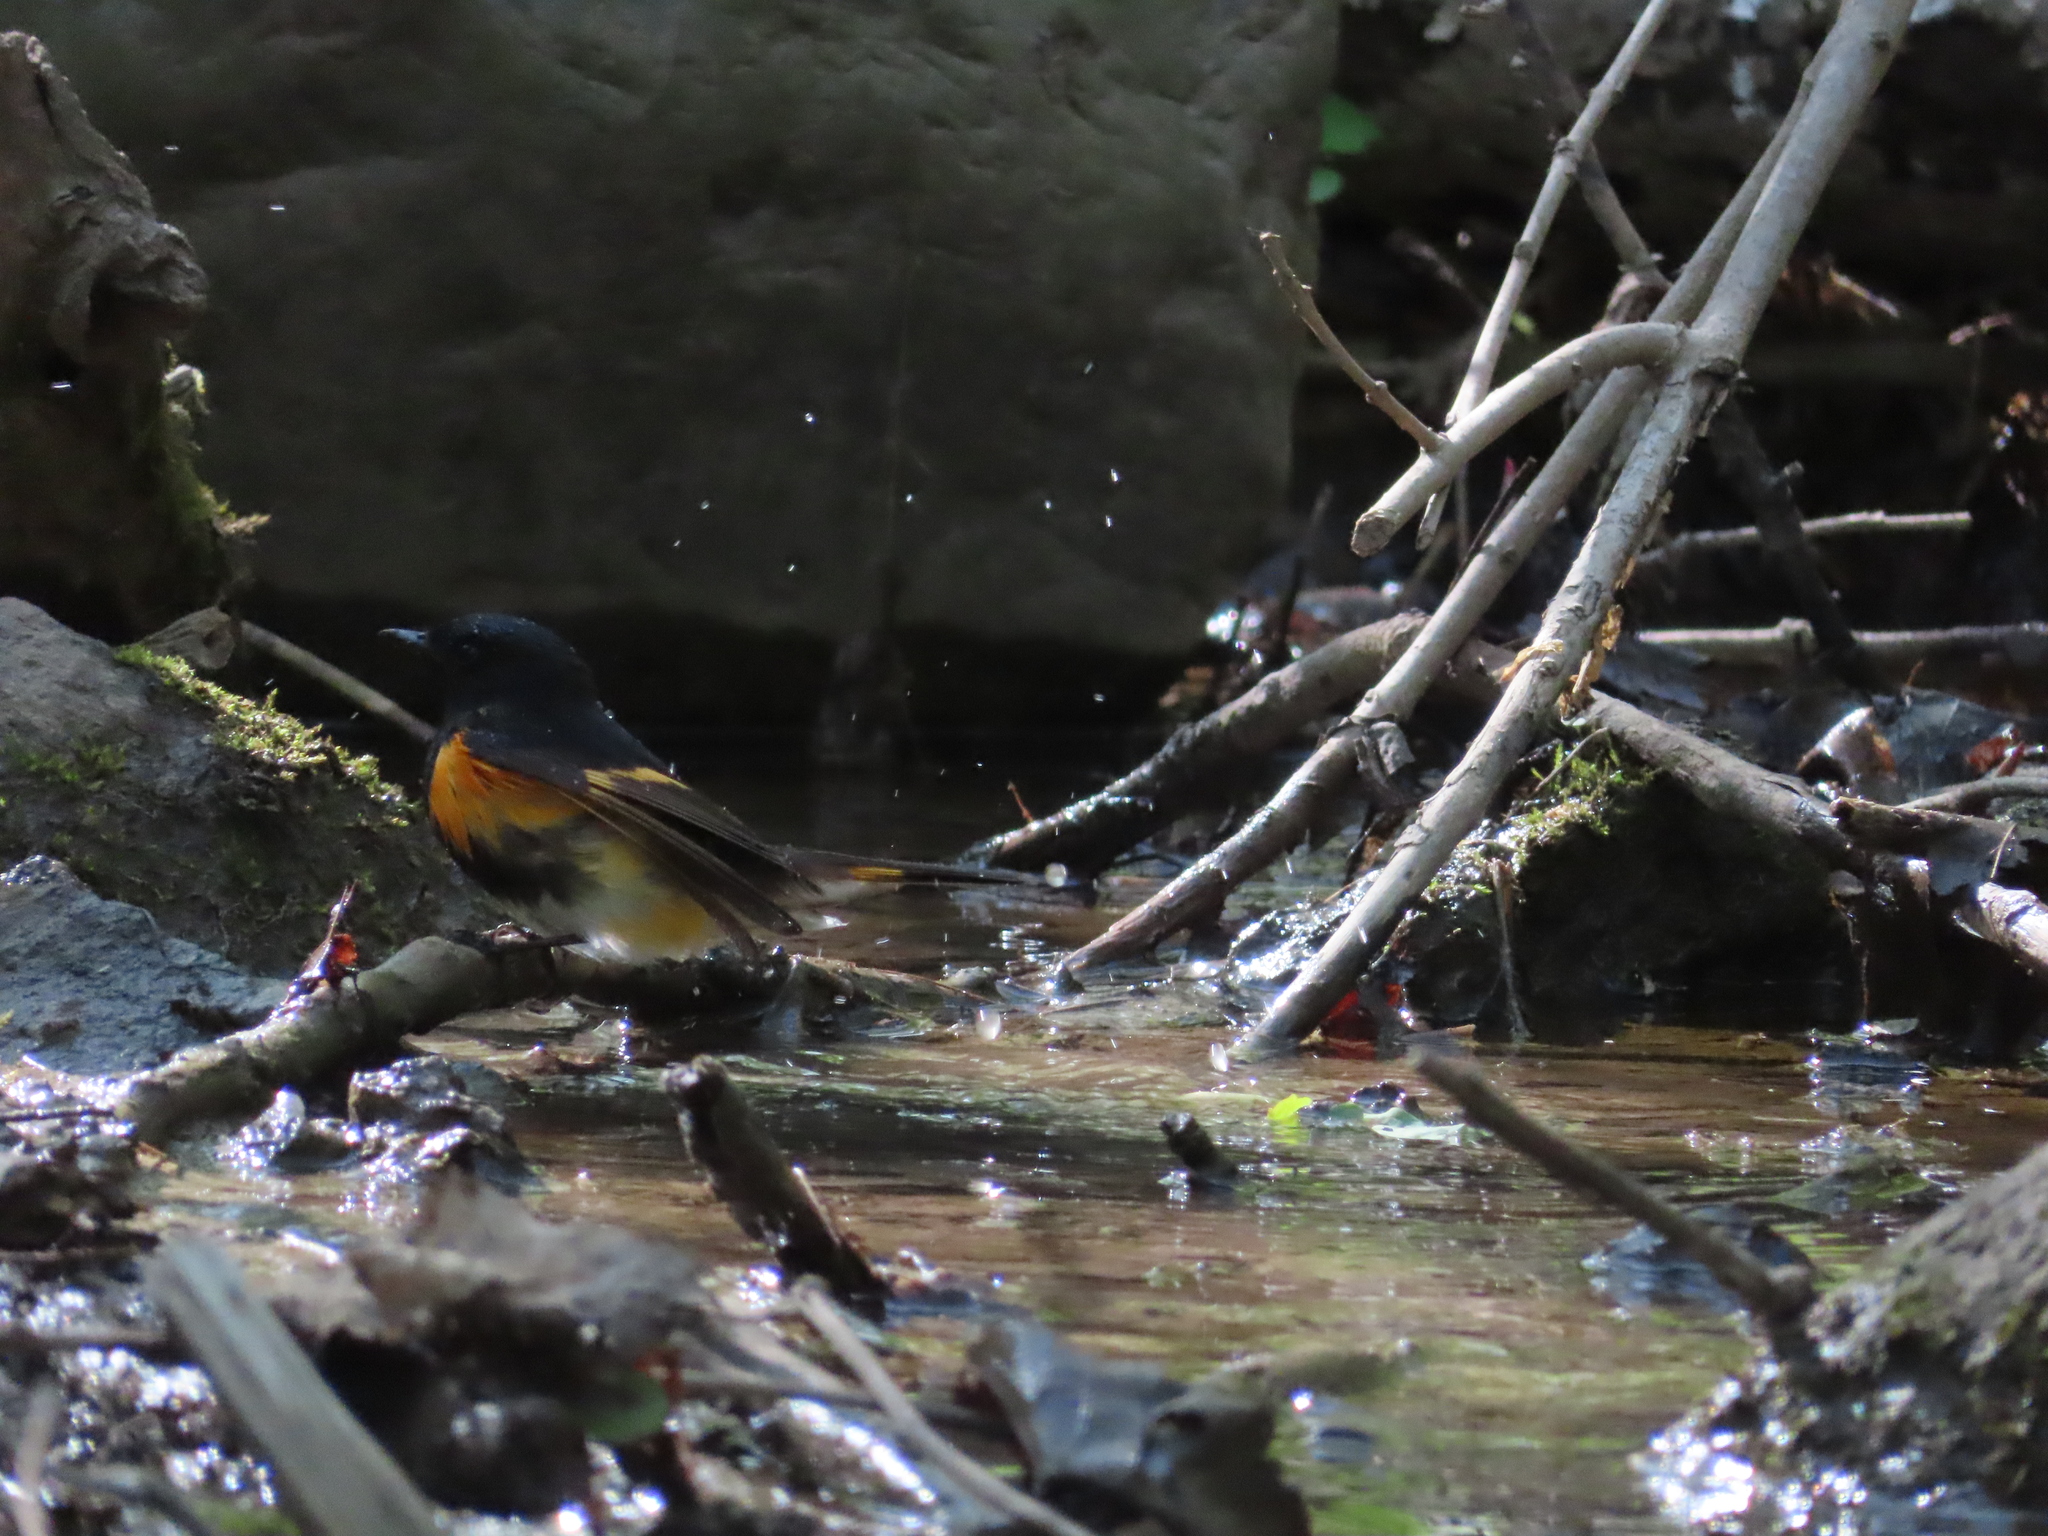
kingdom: Animalia
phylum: Chordata
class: Aves
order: Passeriformes
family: Parulidae
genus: Setophaga
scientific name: Setophaga ruticilla
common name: American redstart
